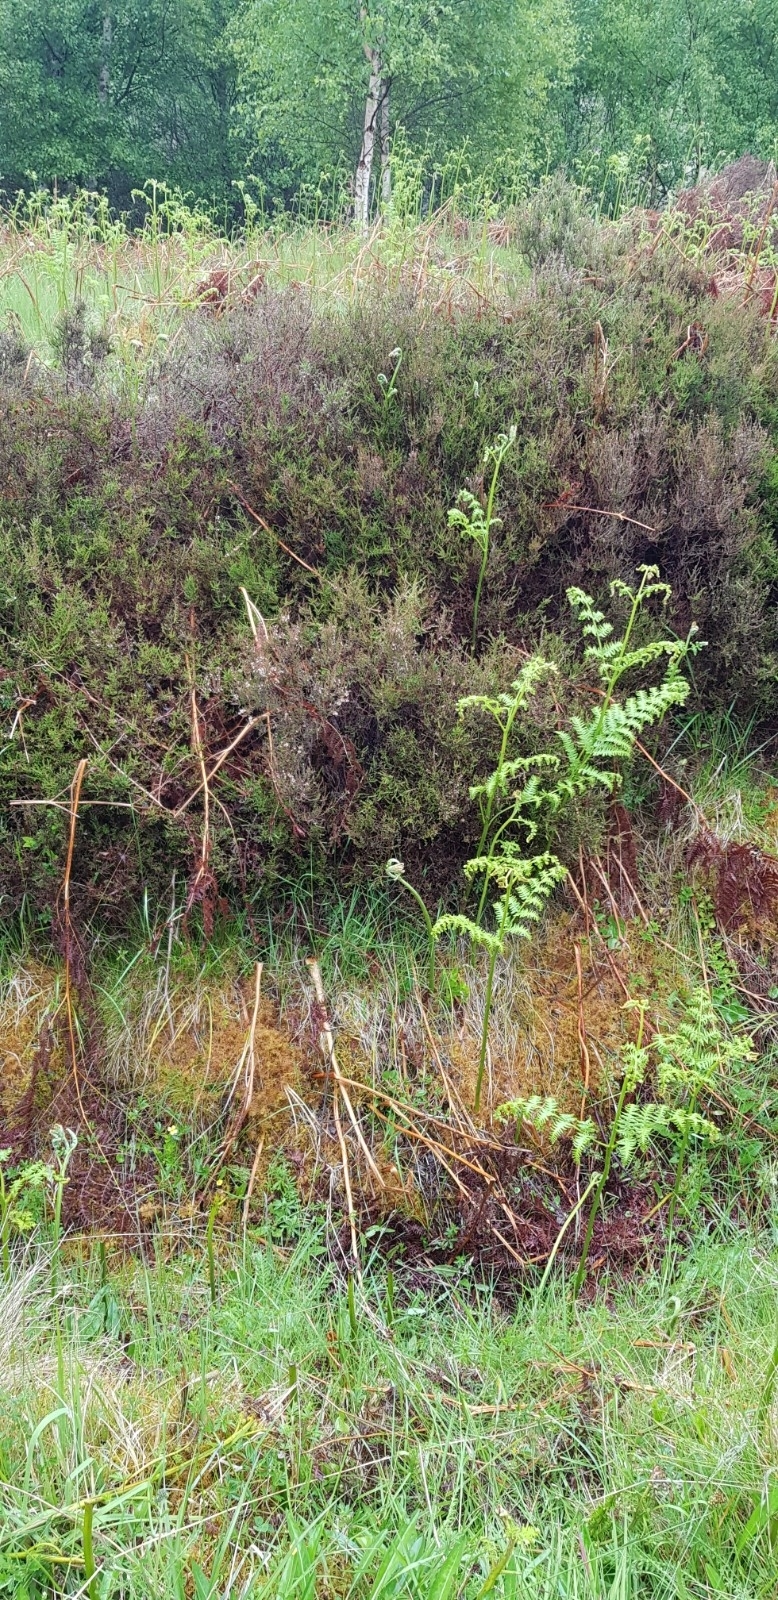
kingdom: Plantae
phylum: Bryophyta
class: Bryopsida
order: Hypnales
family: Hylocomiaceae
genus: Hylocomium
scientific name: Hylocomium splendens
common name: Stairstep moss
